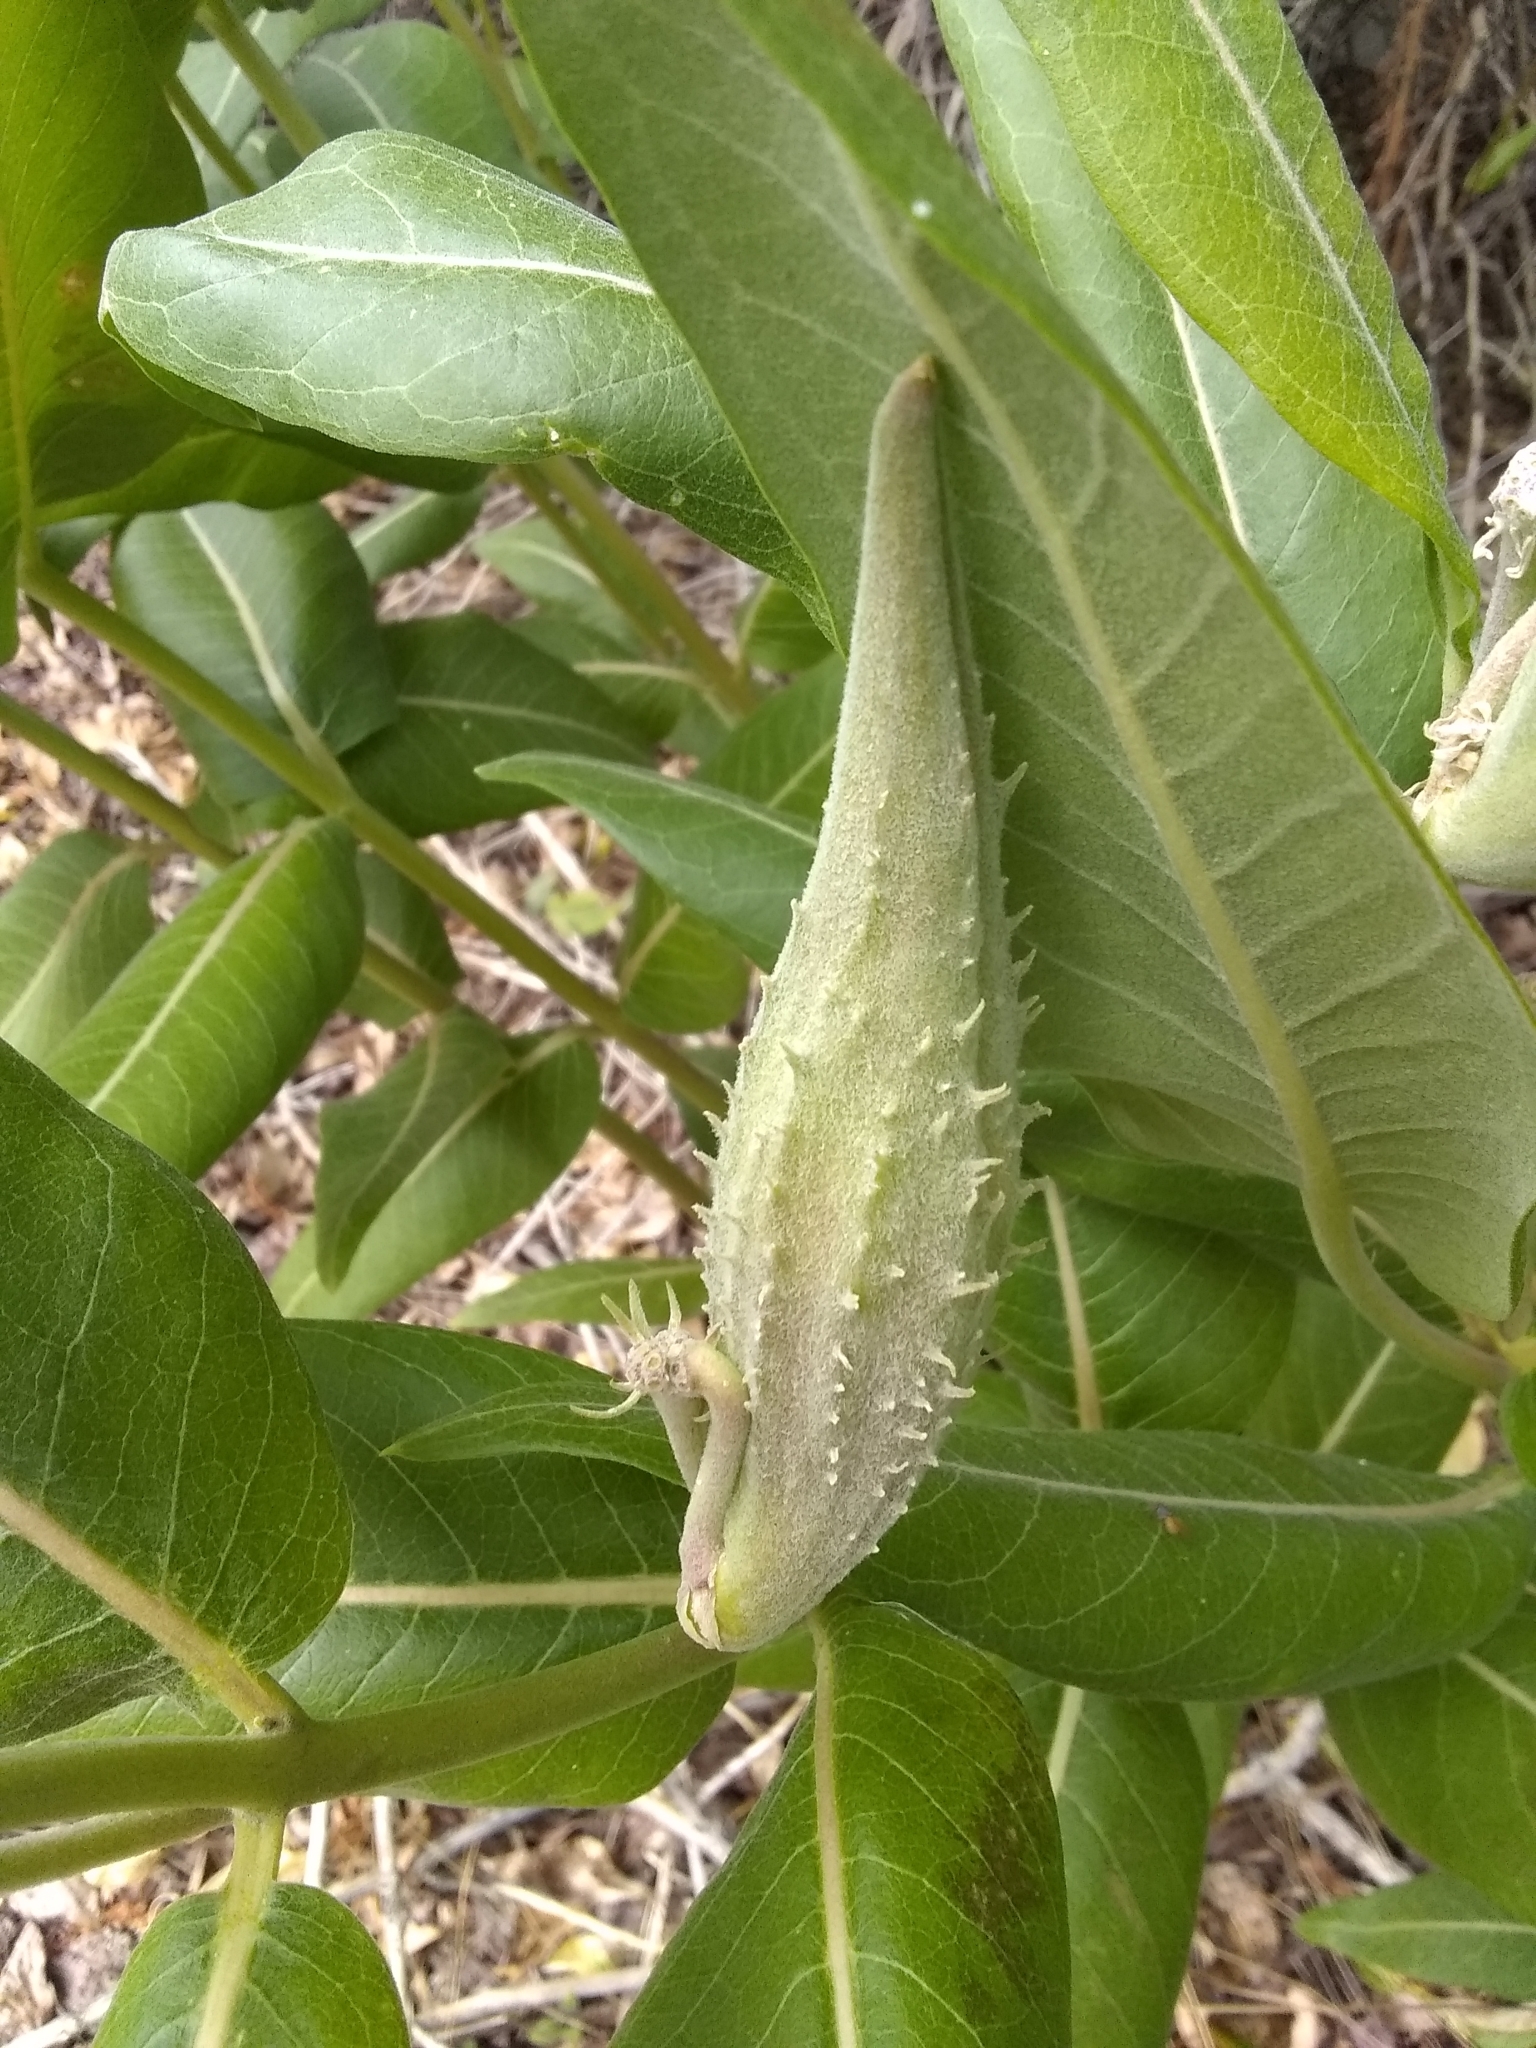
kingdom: Plantae
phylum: Tracheophyta
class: Magnoliopsida
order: Gentianales
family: Apocynaceae
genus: Asclepias
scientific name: Asclepias speciosa
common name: Showy milkweed
